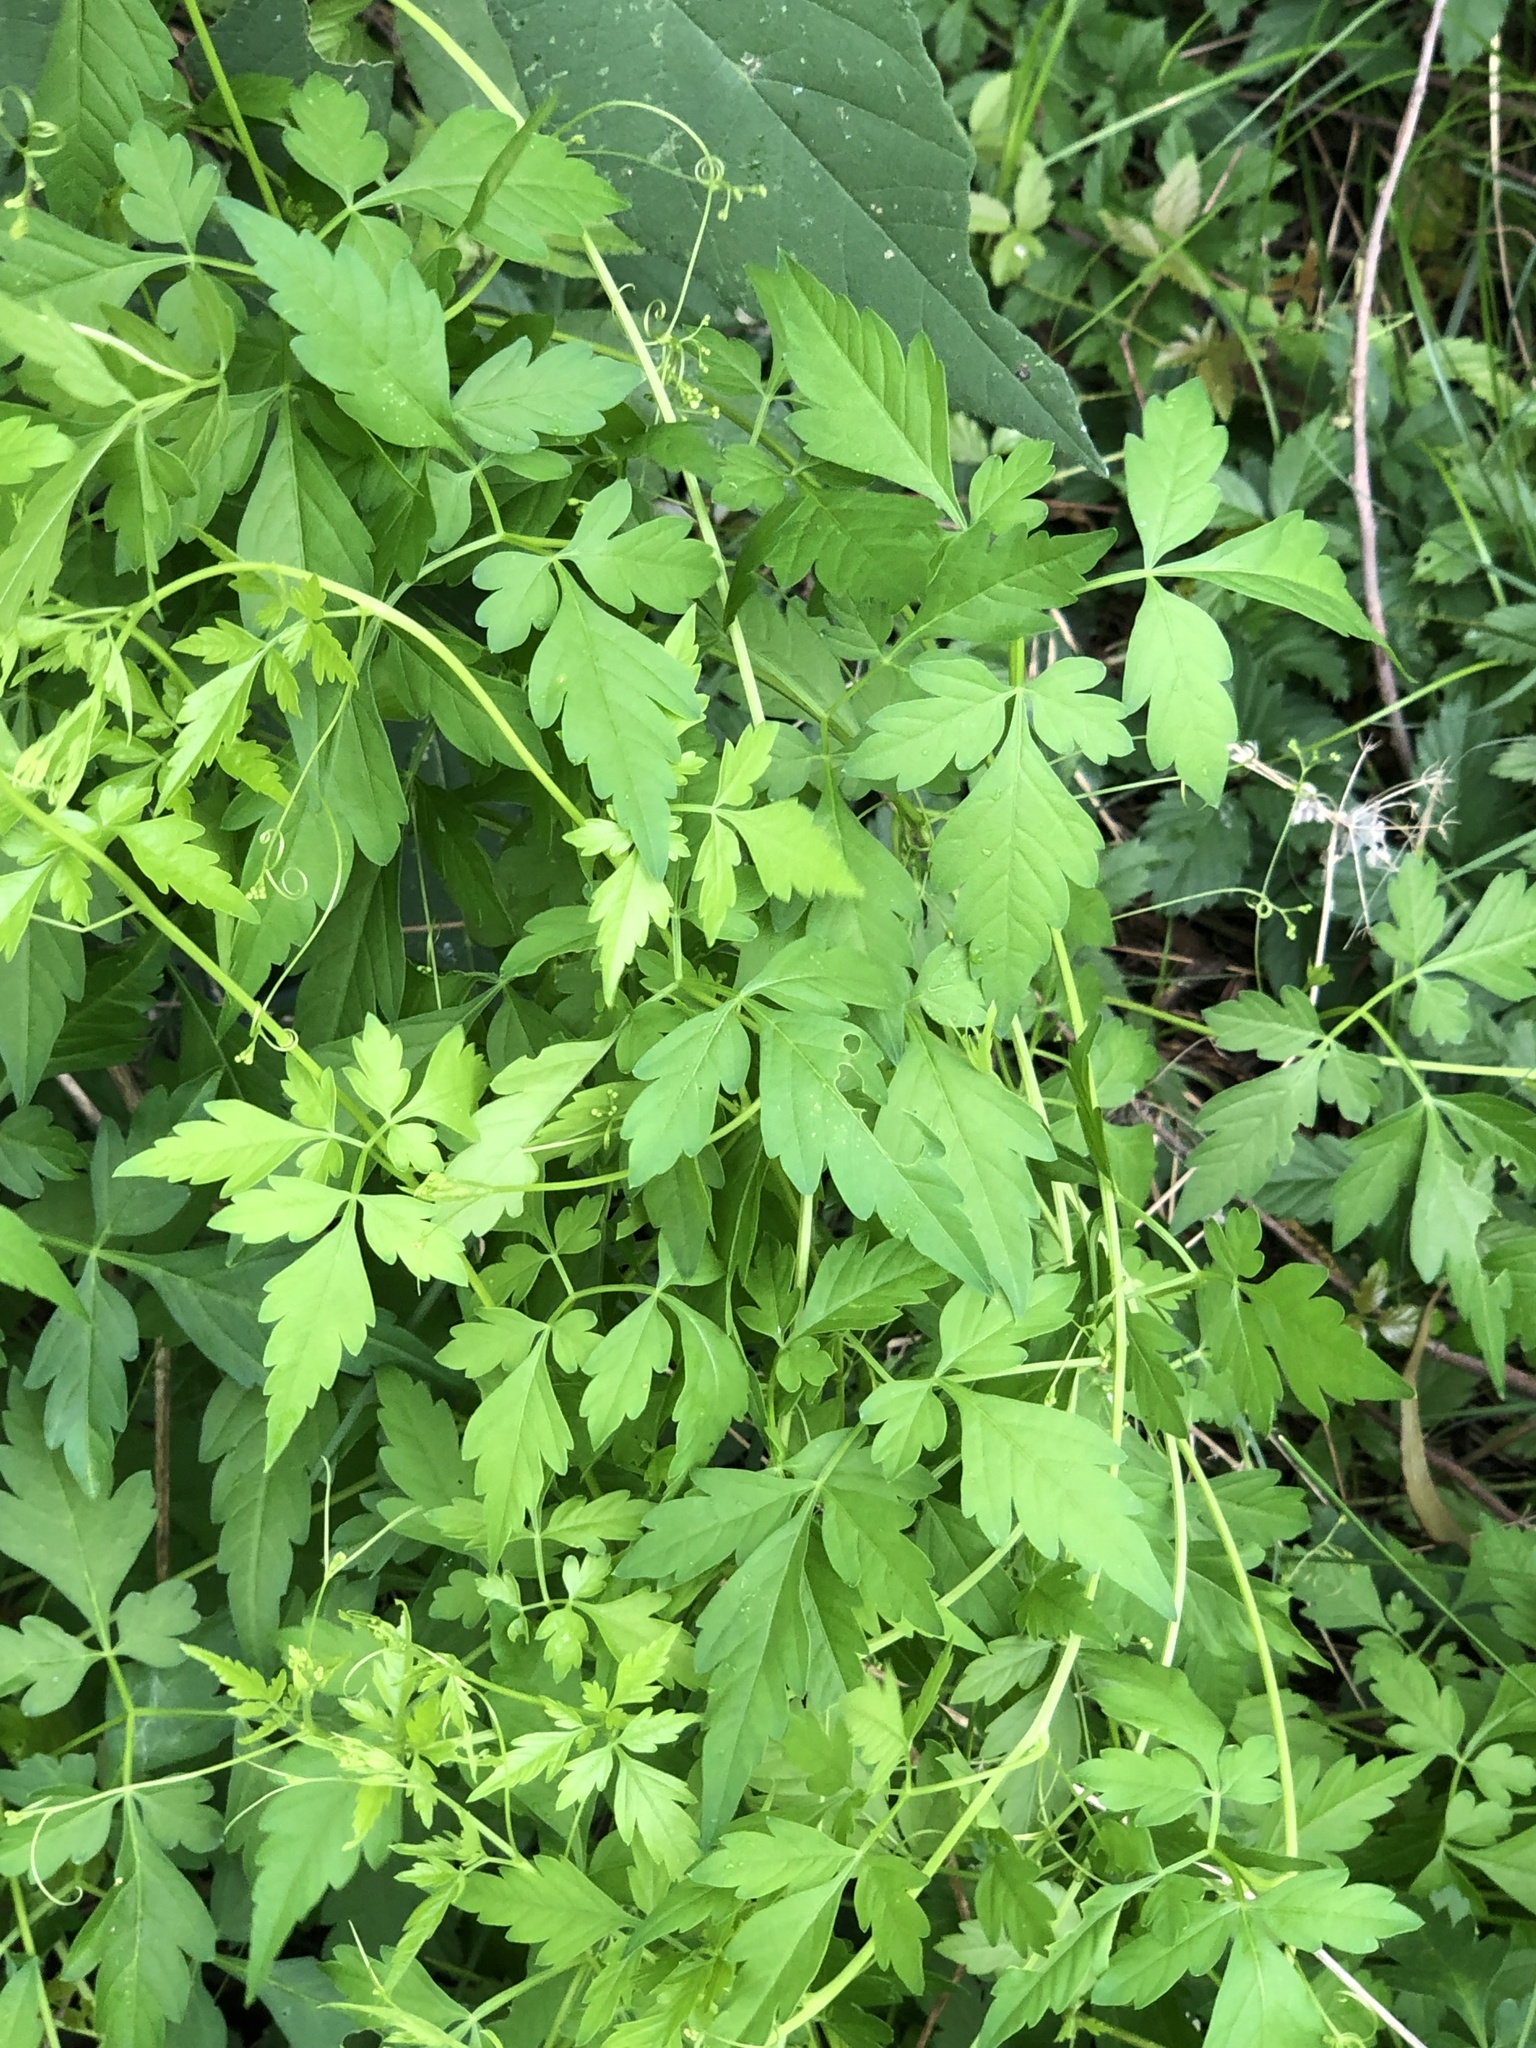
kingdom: Plantae
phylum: Tracheophyta
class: Magnoliopsida
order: Sapindales
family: Sapindaceae
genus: Cardiospermum
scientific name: Cardiospermum halicacabum
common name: Balloon vine
